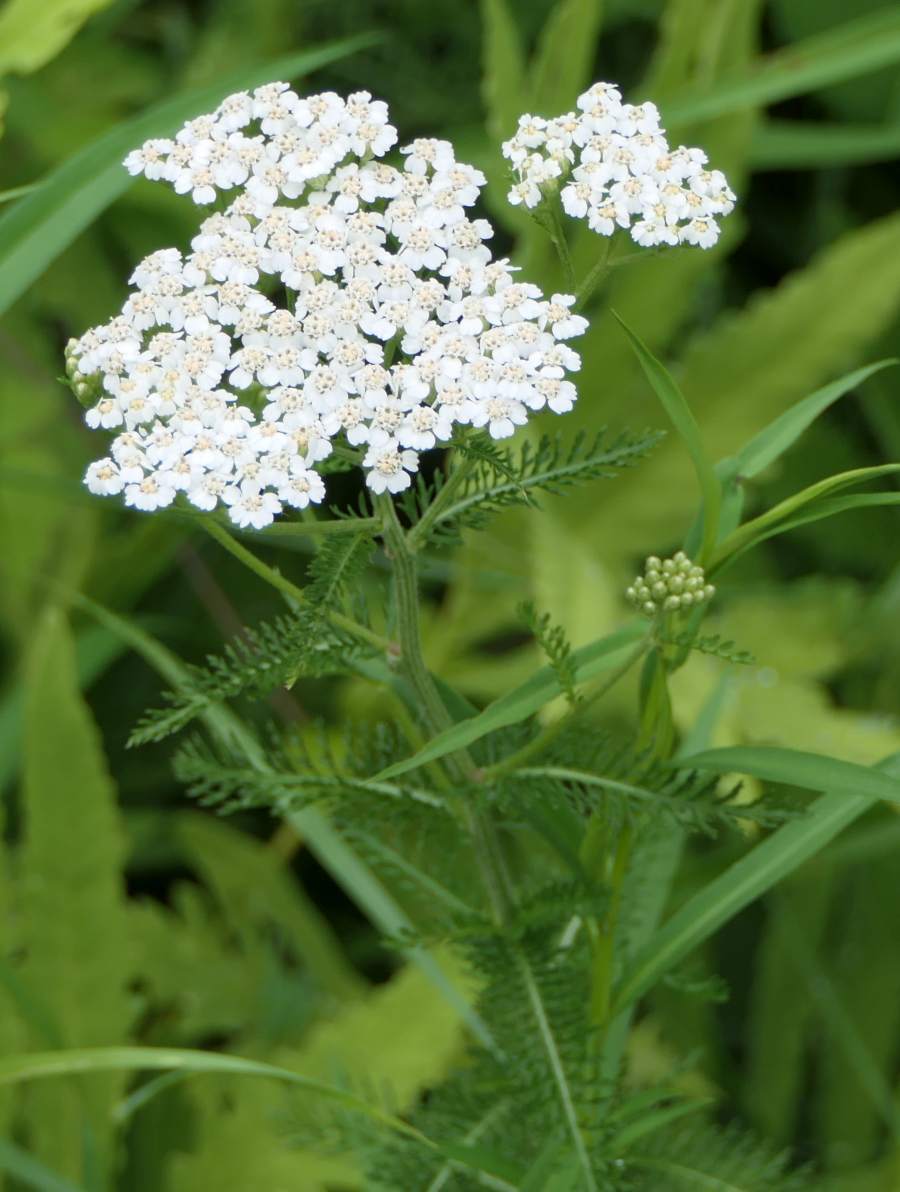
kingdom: Plantae
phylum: Tracheophyta
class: Magnoliopsida
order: Asterales
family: Asteraceae
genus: Achillea
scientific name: Achillea millefolium
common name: Yarrow
